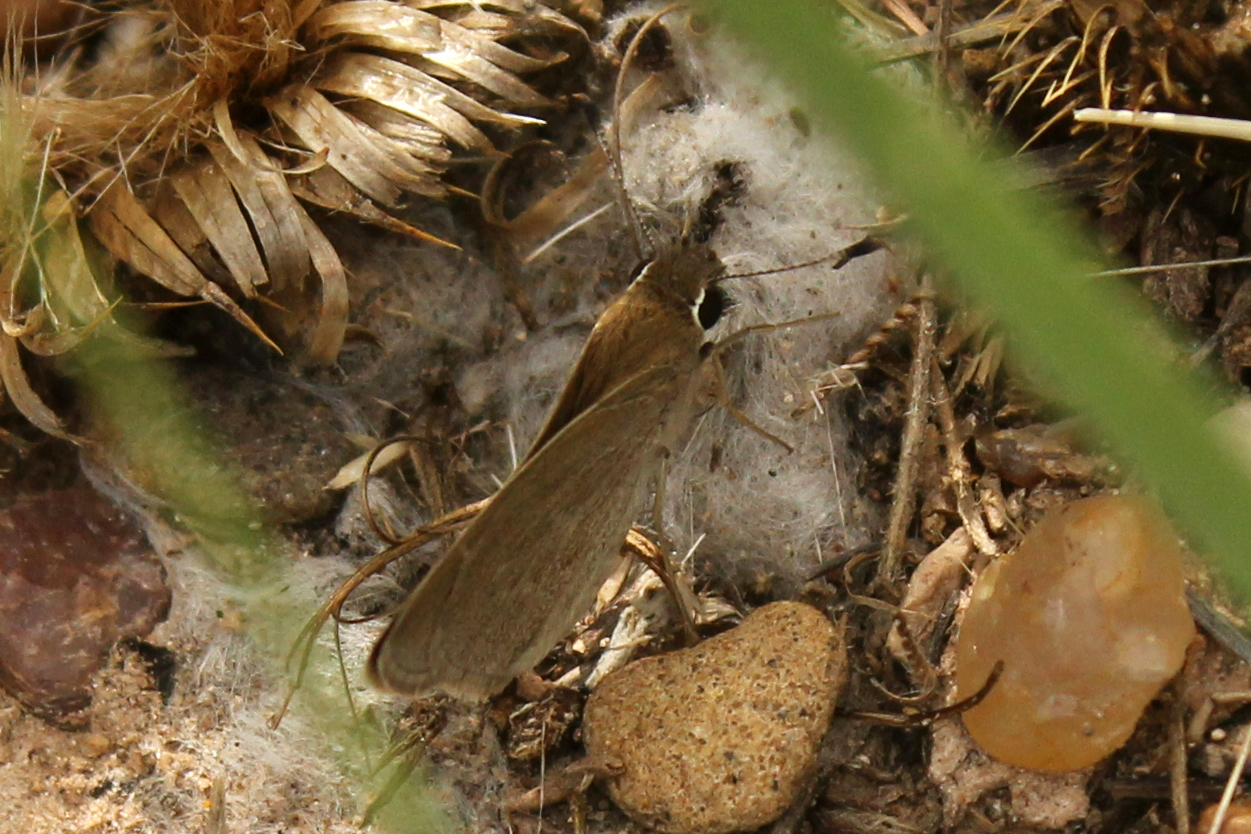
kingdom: Animalia
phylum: Arthropoda
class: Insecta
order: Lepidoptera
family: Hesperiidae
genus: Lerodea
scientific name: Lerodea eufala
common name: Eufala skipper
